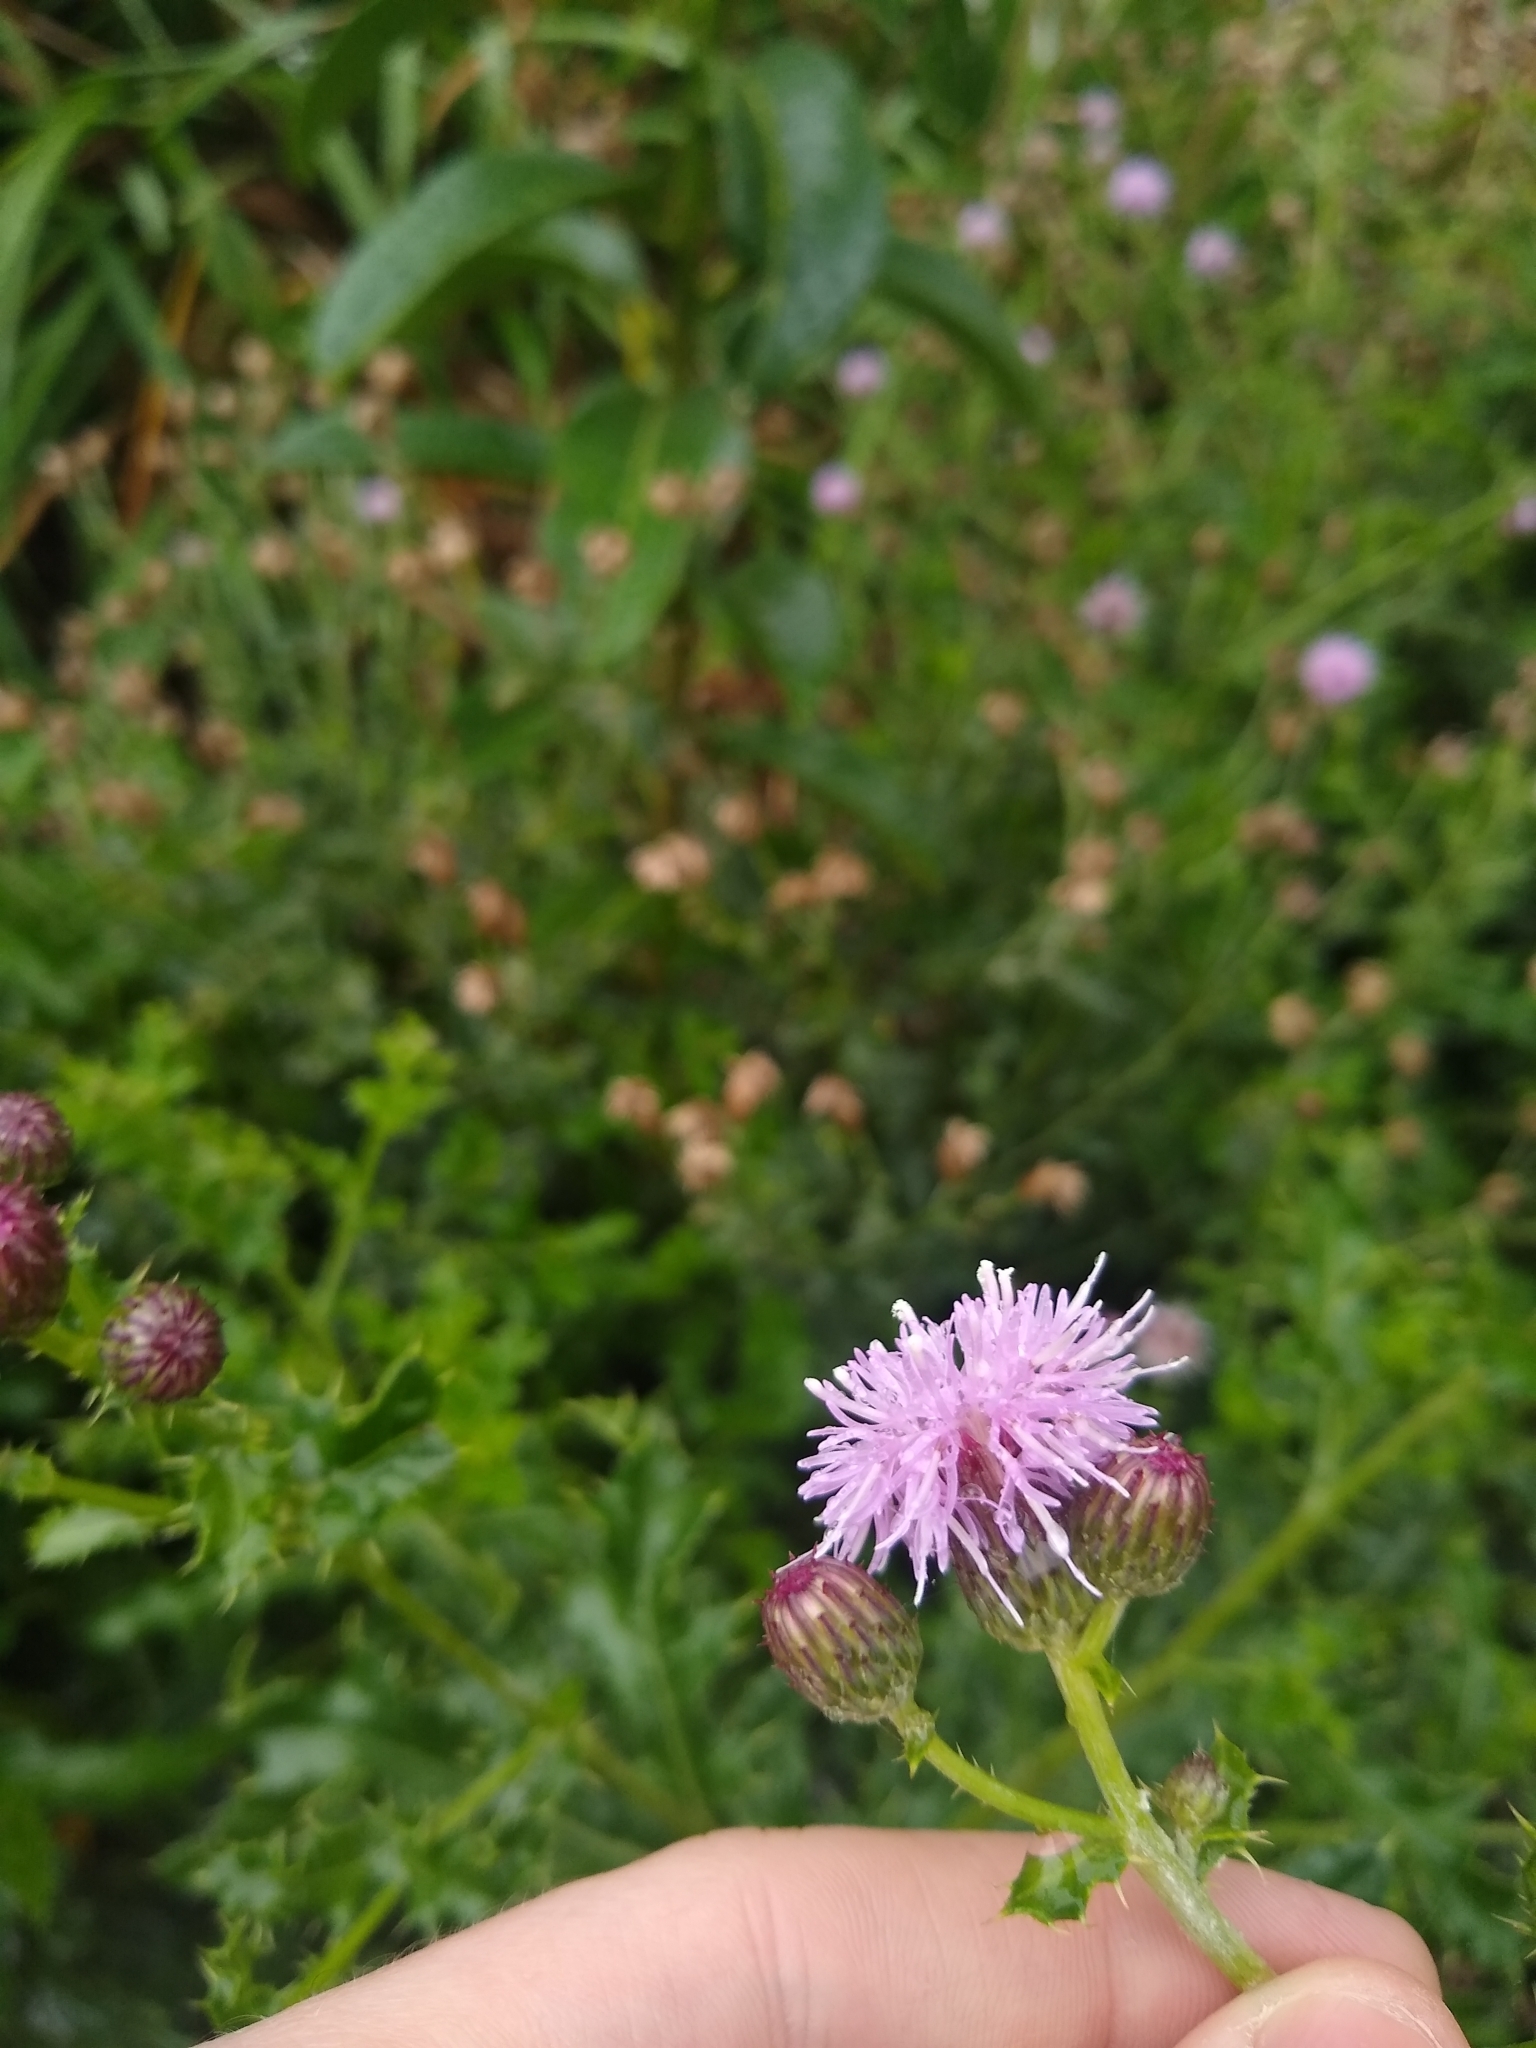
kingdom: Plantae
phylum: Tracheophyta
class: Magnoliopsida
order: Asterales
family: Asteraceae
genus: Cirsium
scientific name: Cirsium arvense
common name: Creeping thistle
